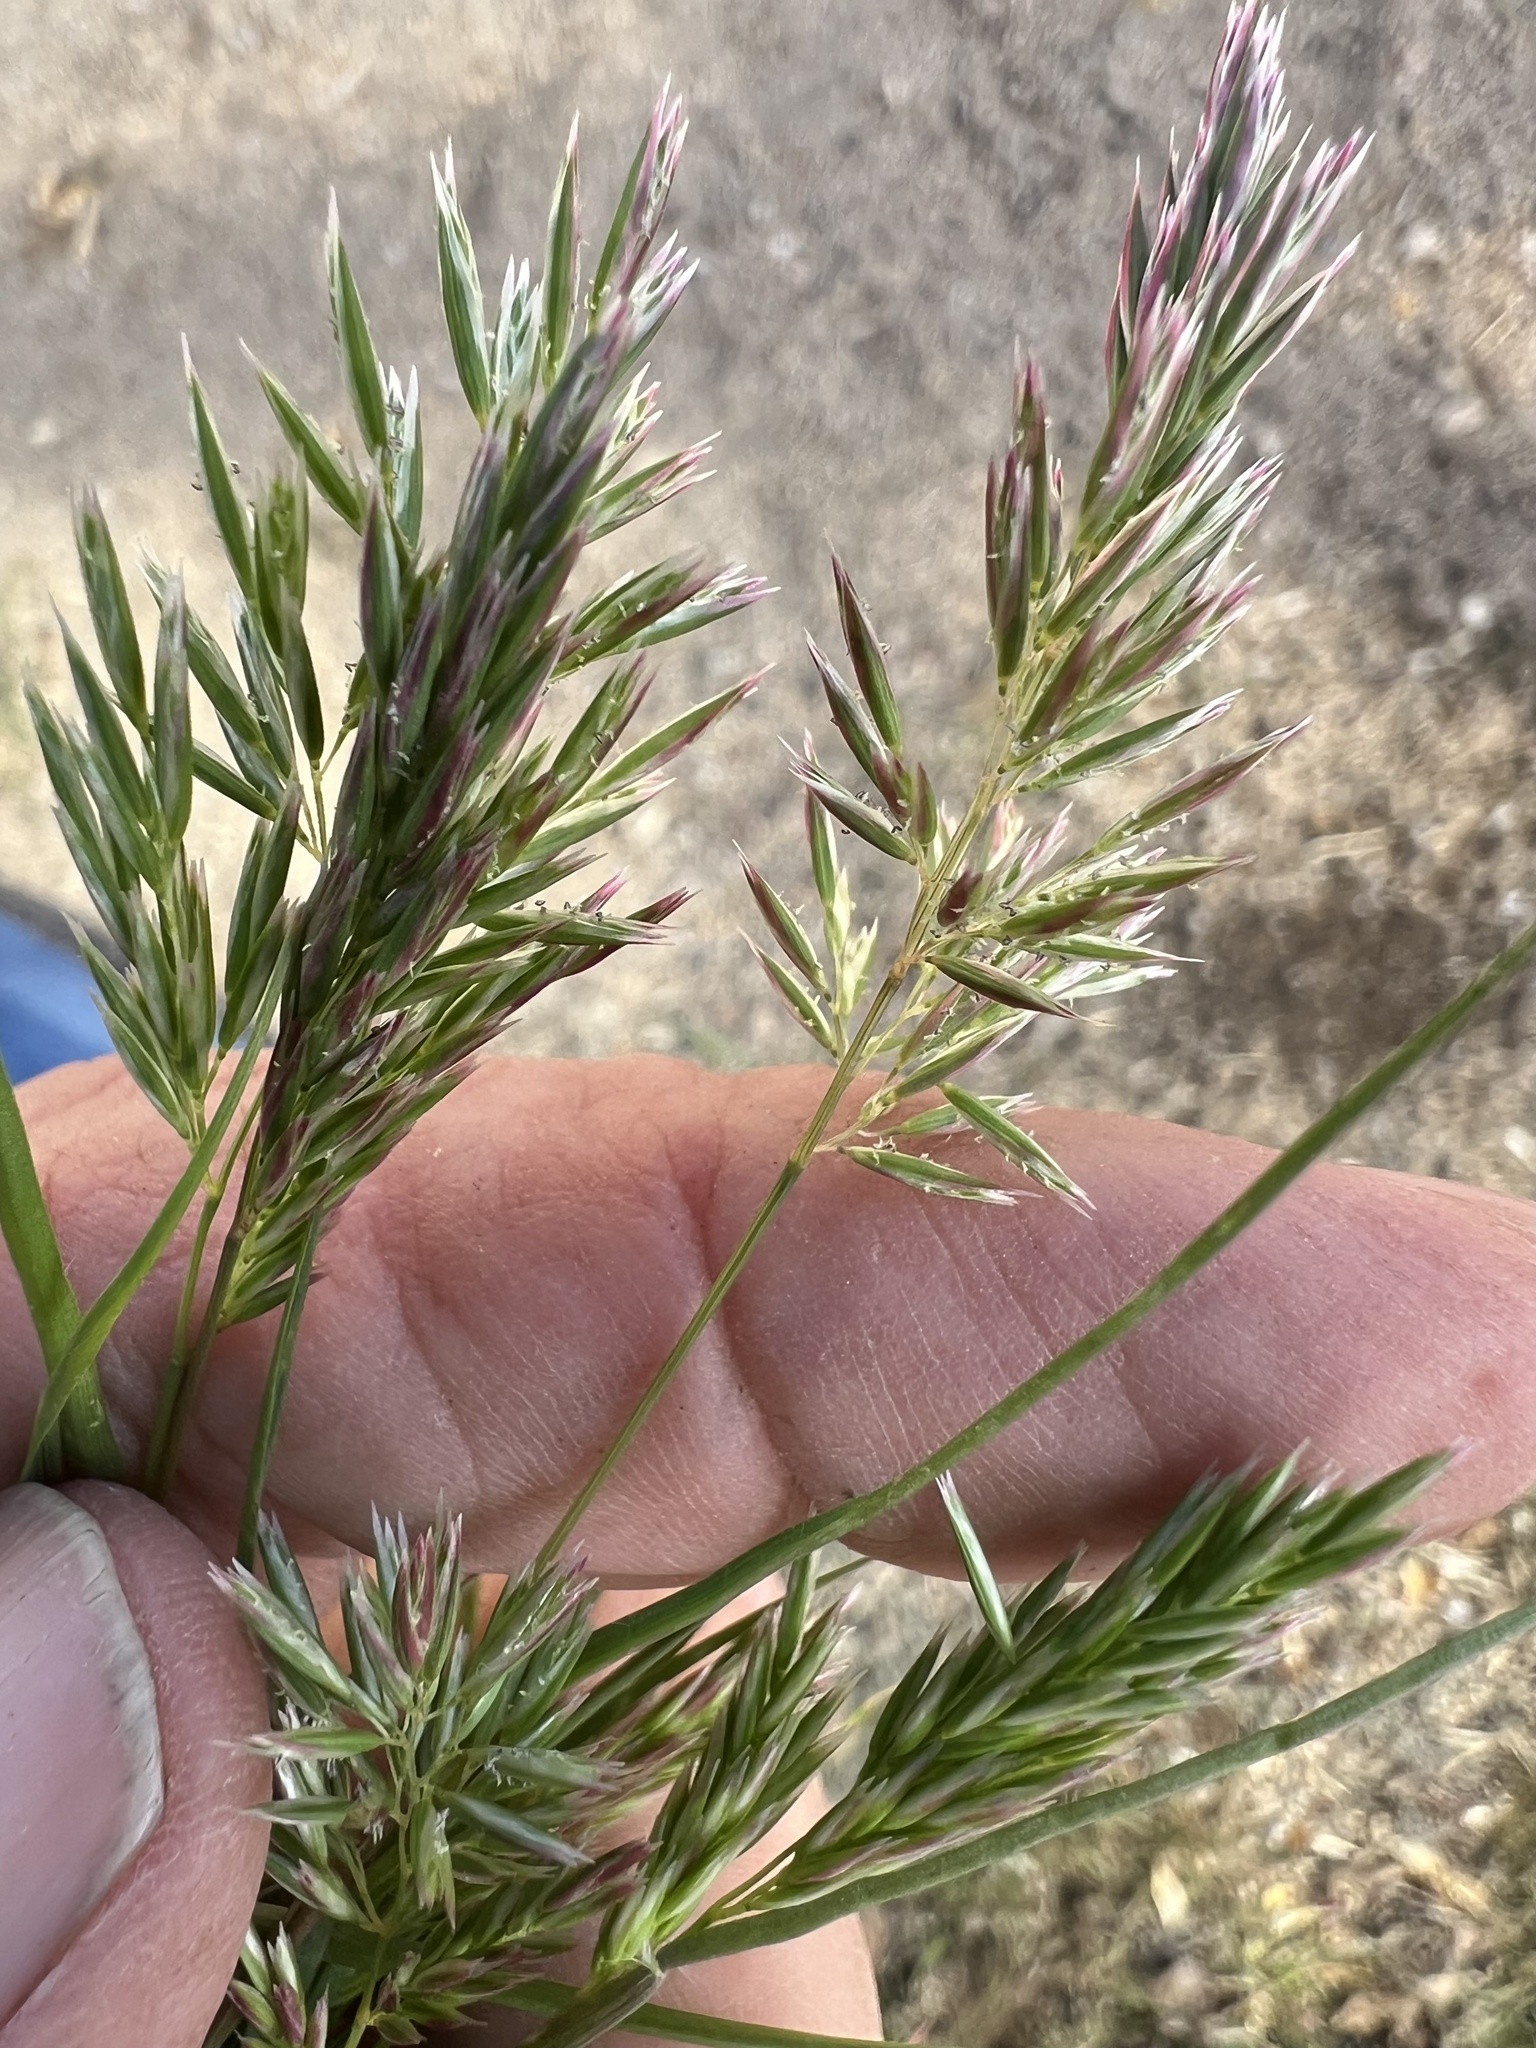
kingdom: Plantae
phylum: Tracheophyta
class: Liliopsida
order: Poales
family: Poaceae
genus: Schismus
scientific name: Schismus arabicus
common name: Arabian schismus
